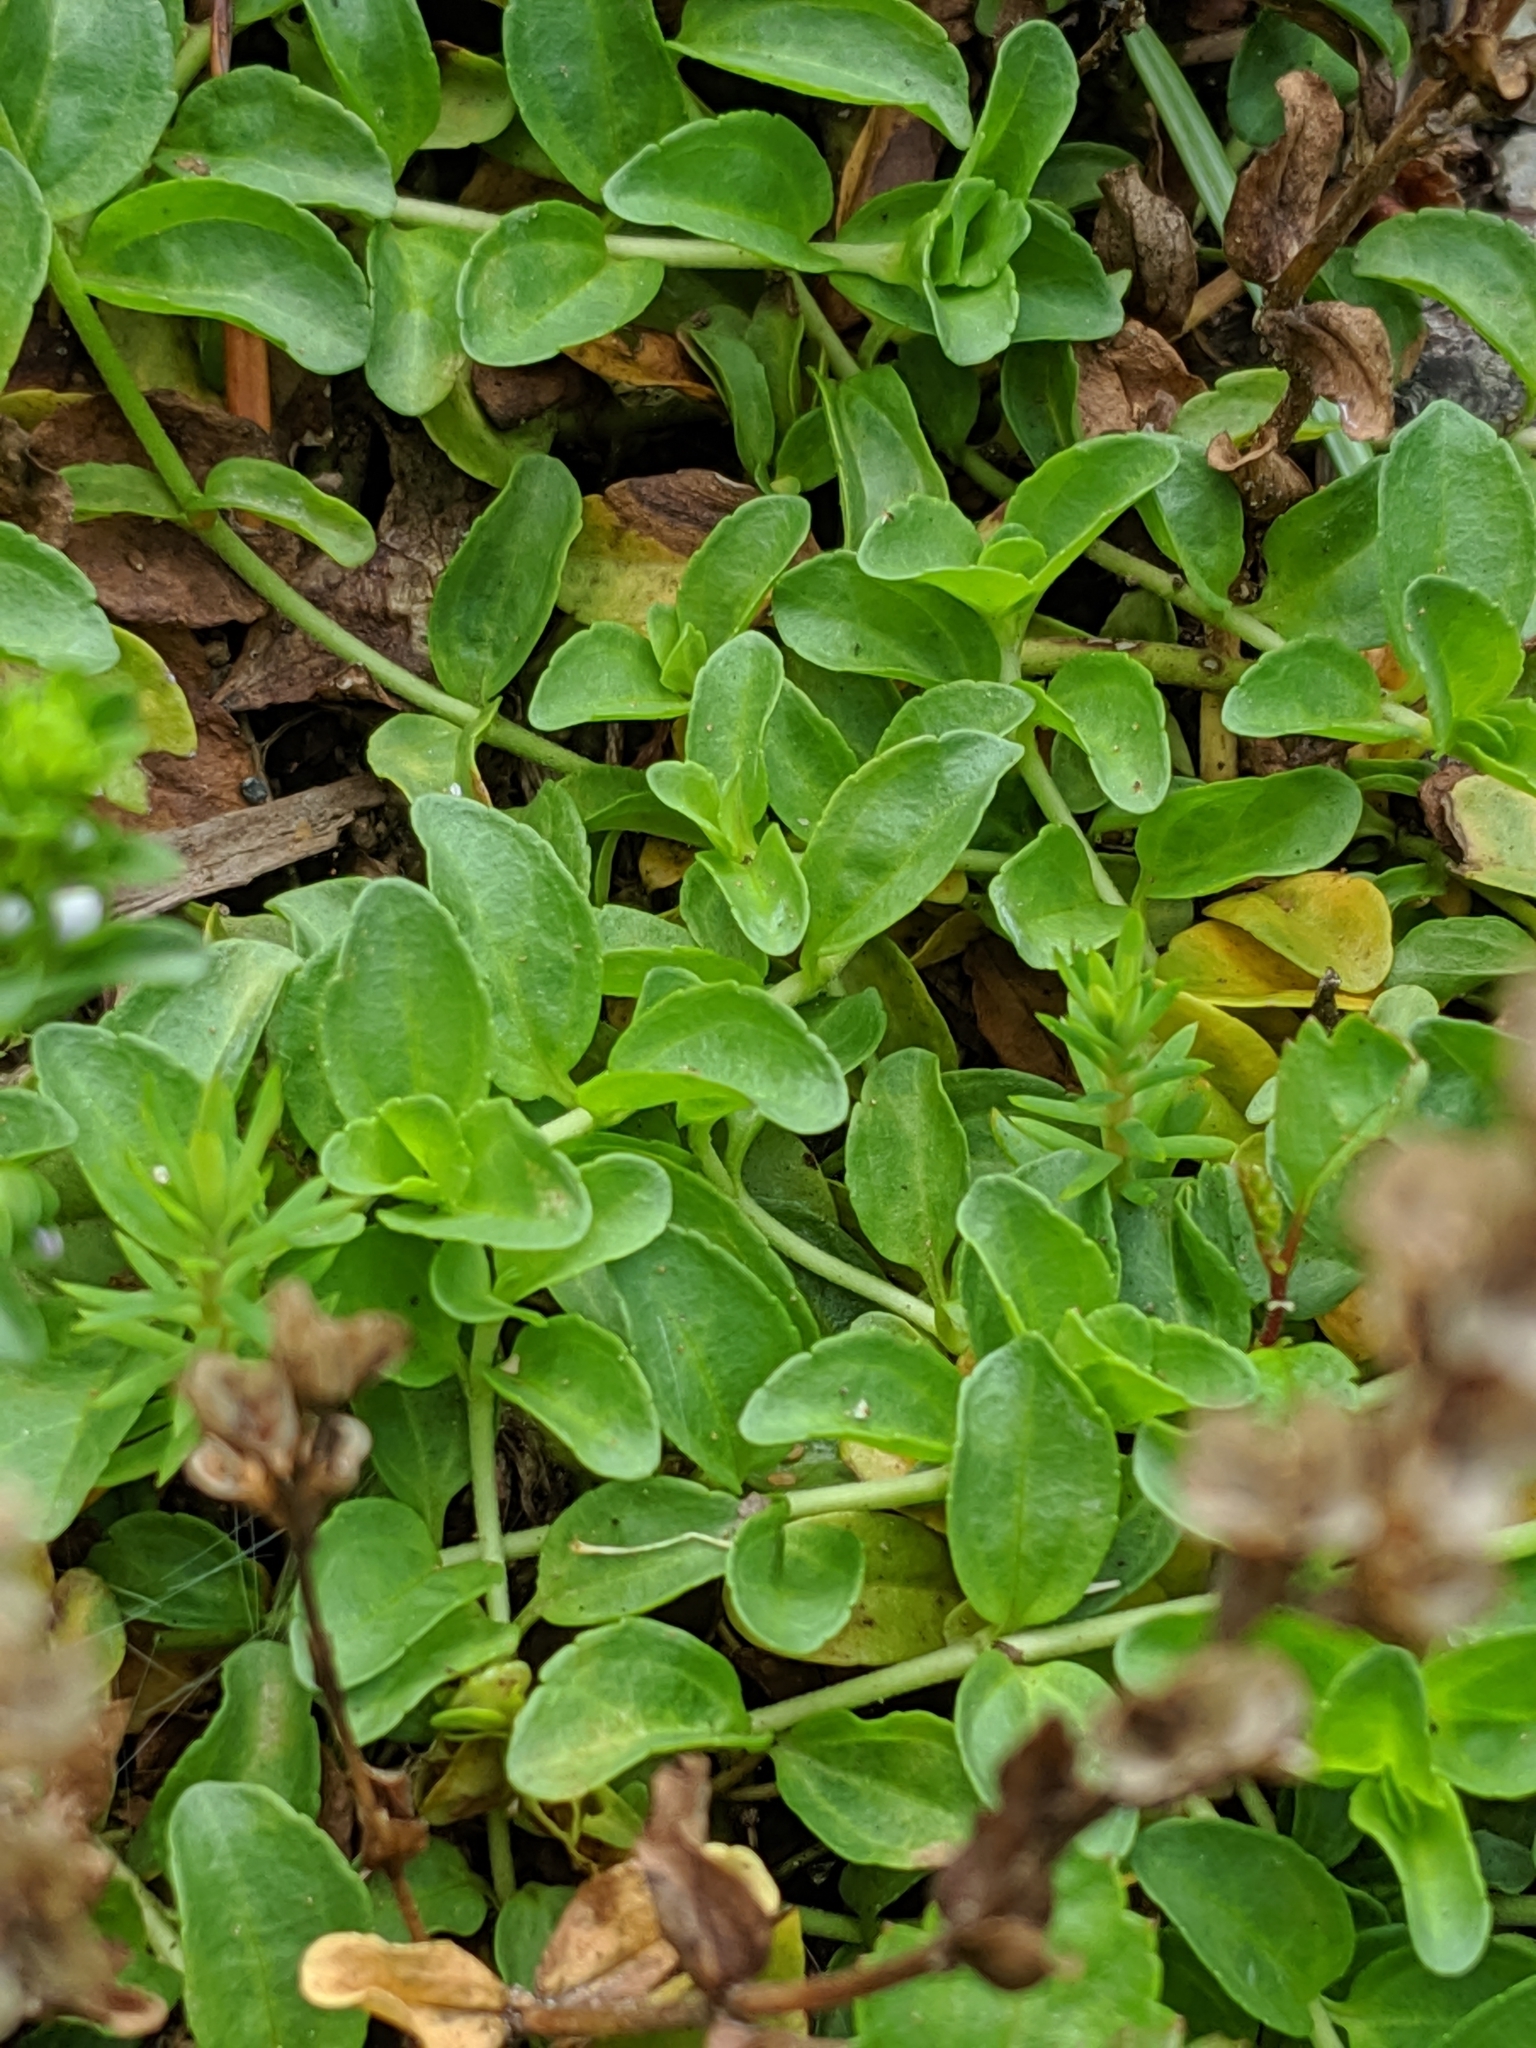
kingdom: Plantae
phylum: Tracheophyta
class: Magnoliopsida
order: Lamiales
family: Plantaginaceae
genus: Veronica
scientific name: Veronica serpyllifolia
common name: Thyme-leaved speedwell
